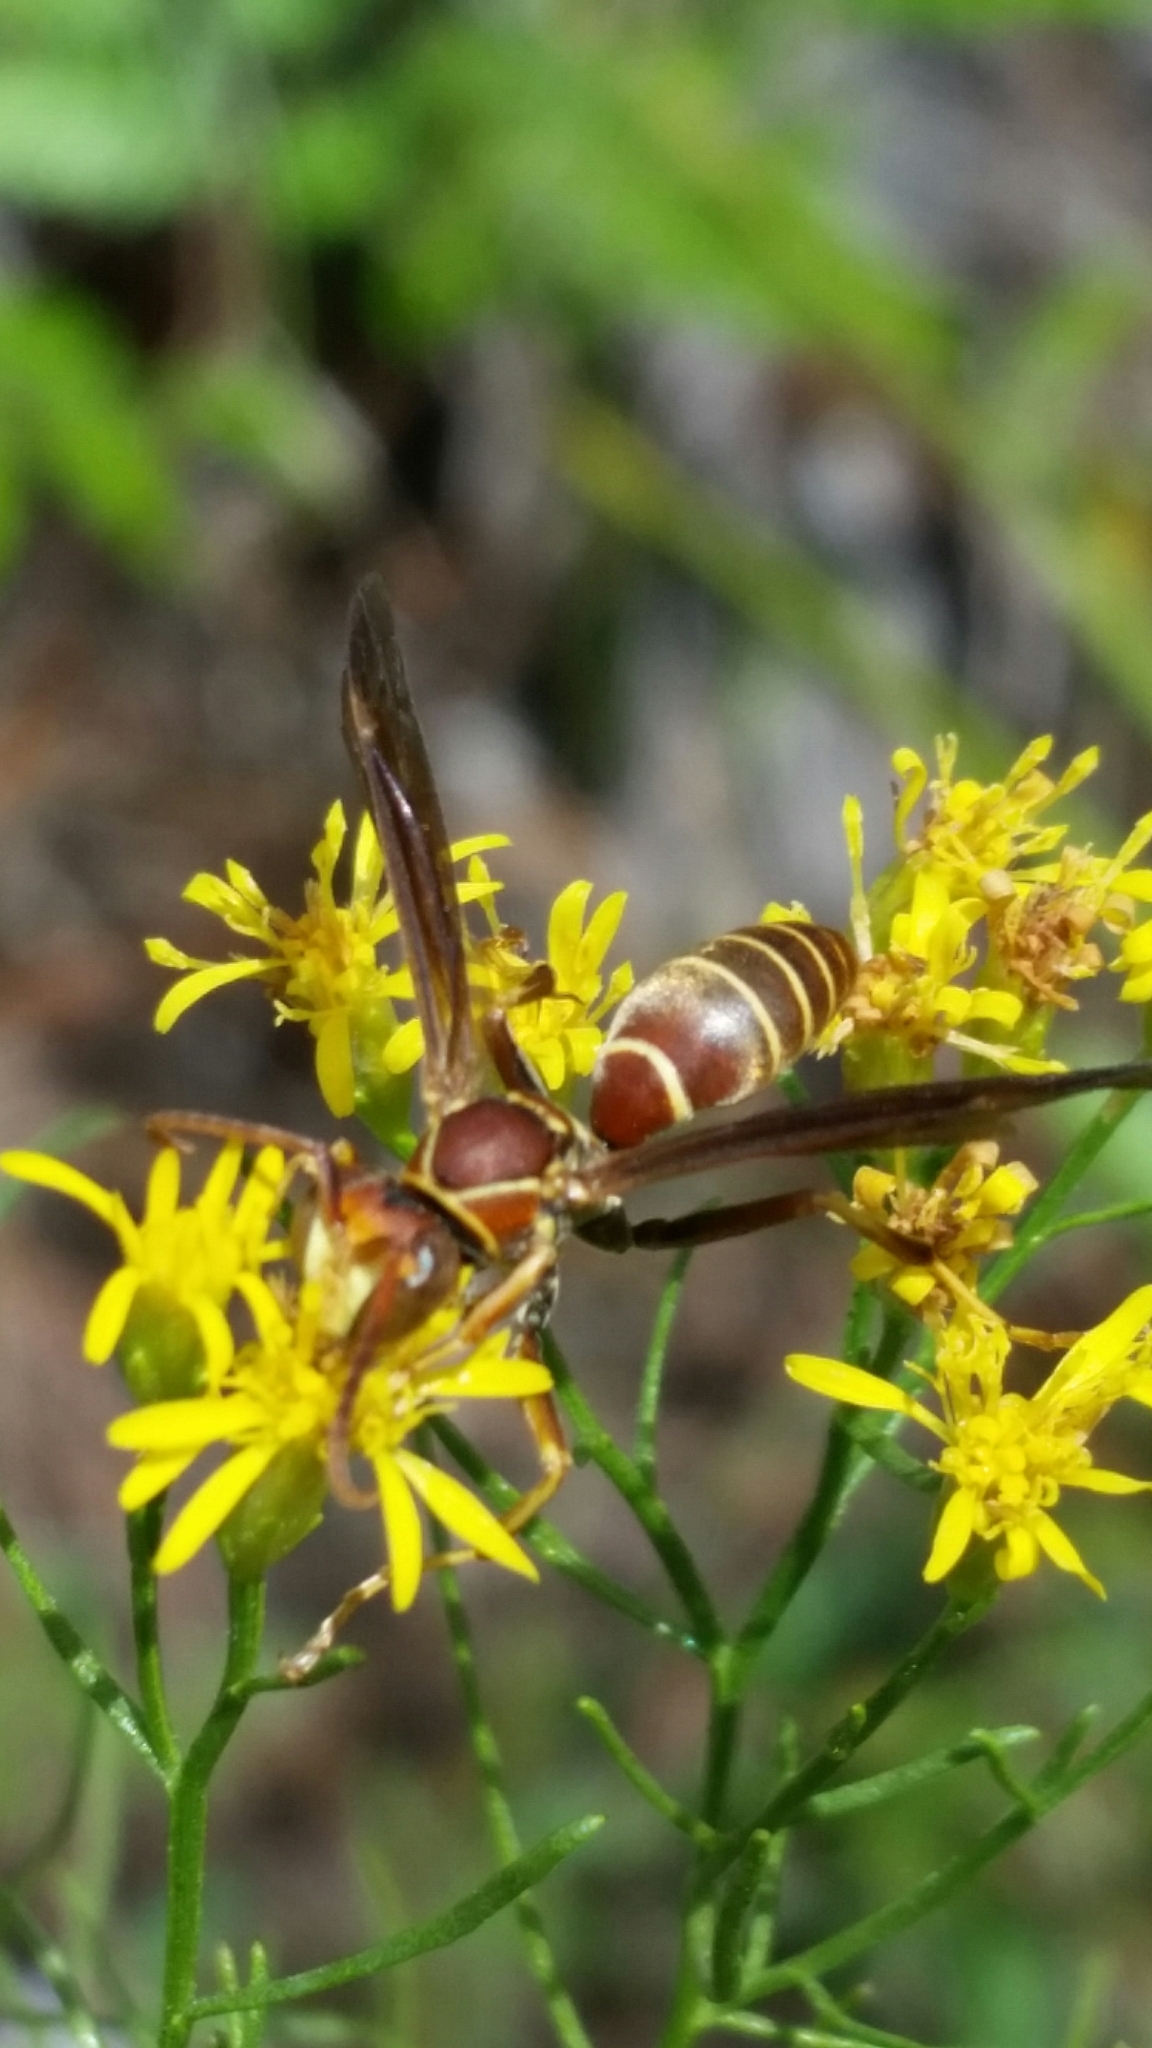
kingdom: Animalia
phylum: Arthropoda
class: Insecta
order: Hymenoptera
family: Eumenidae
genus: Polistes
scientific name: Polistes dorsalis
